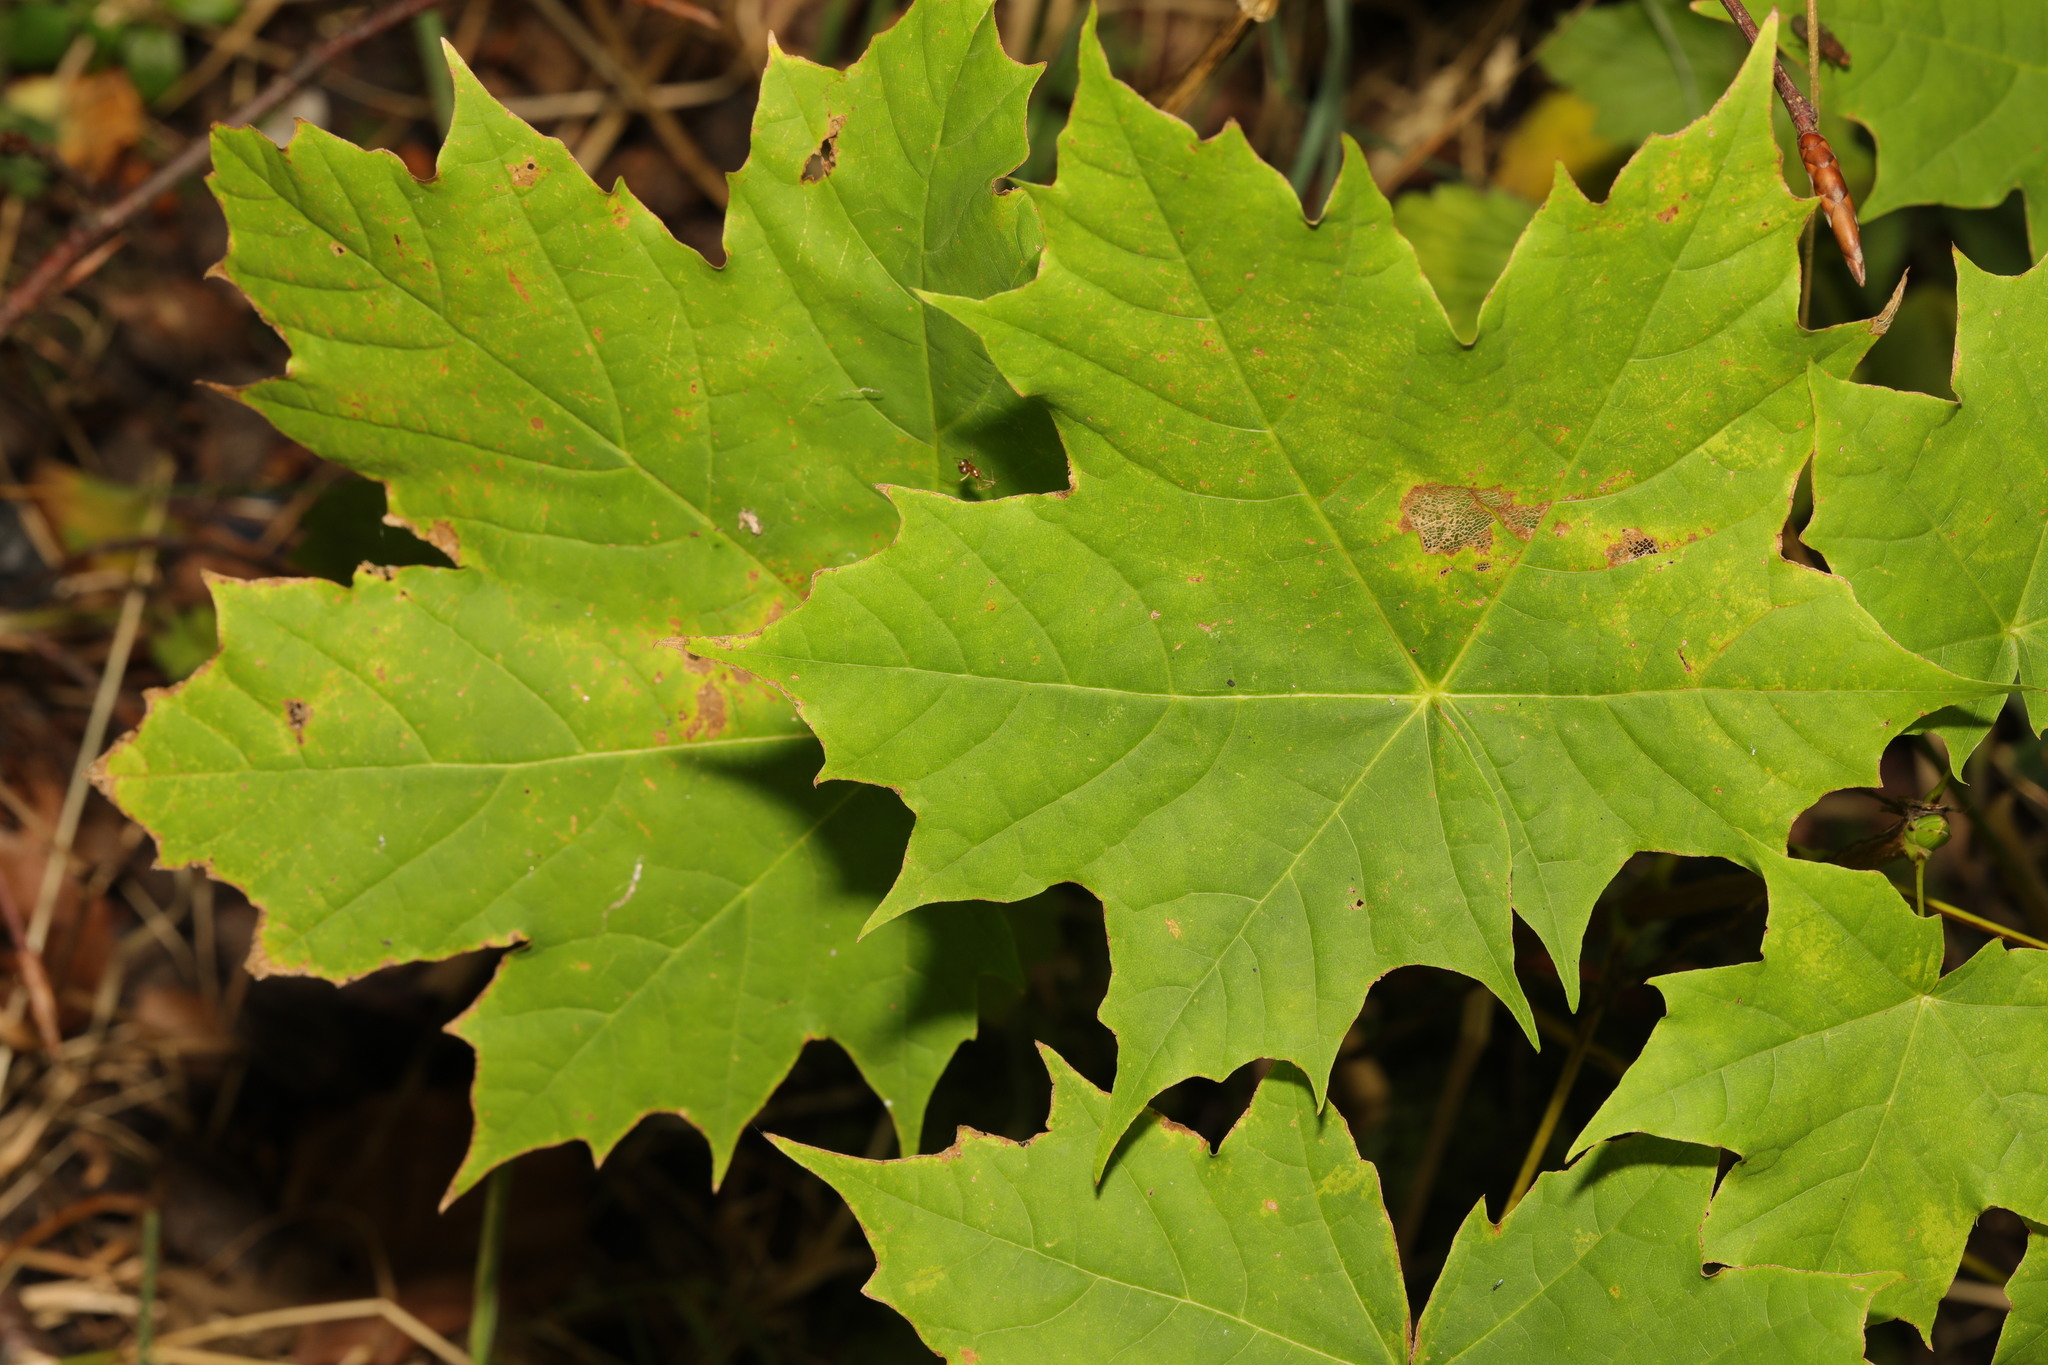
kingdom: Plantae
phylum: Tracheophyta
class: Magnoliopsida
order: Sapindales
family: Sapindaceae
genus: Acer
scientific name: Acer platanoides
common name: Norway maple
